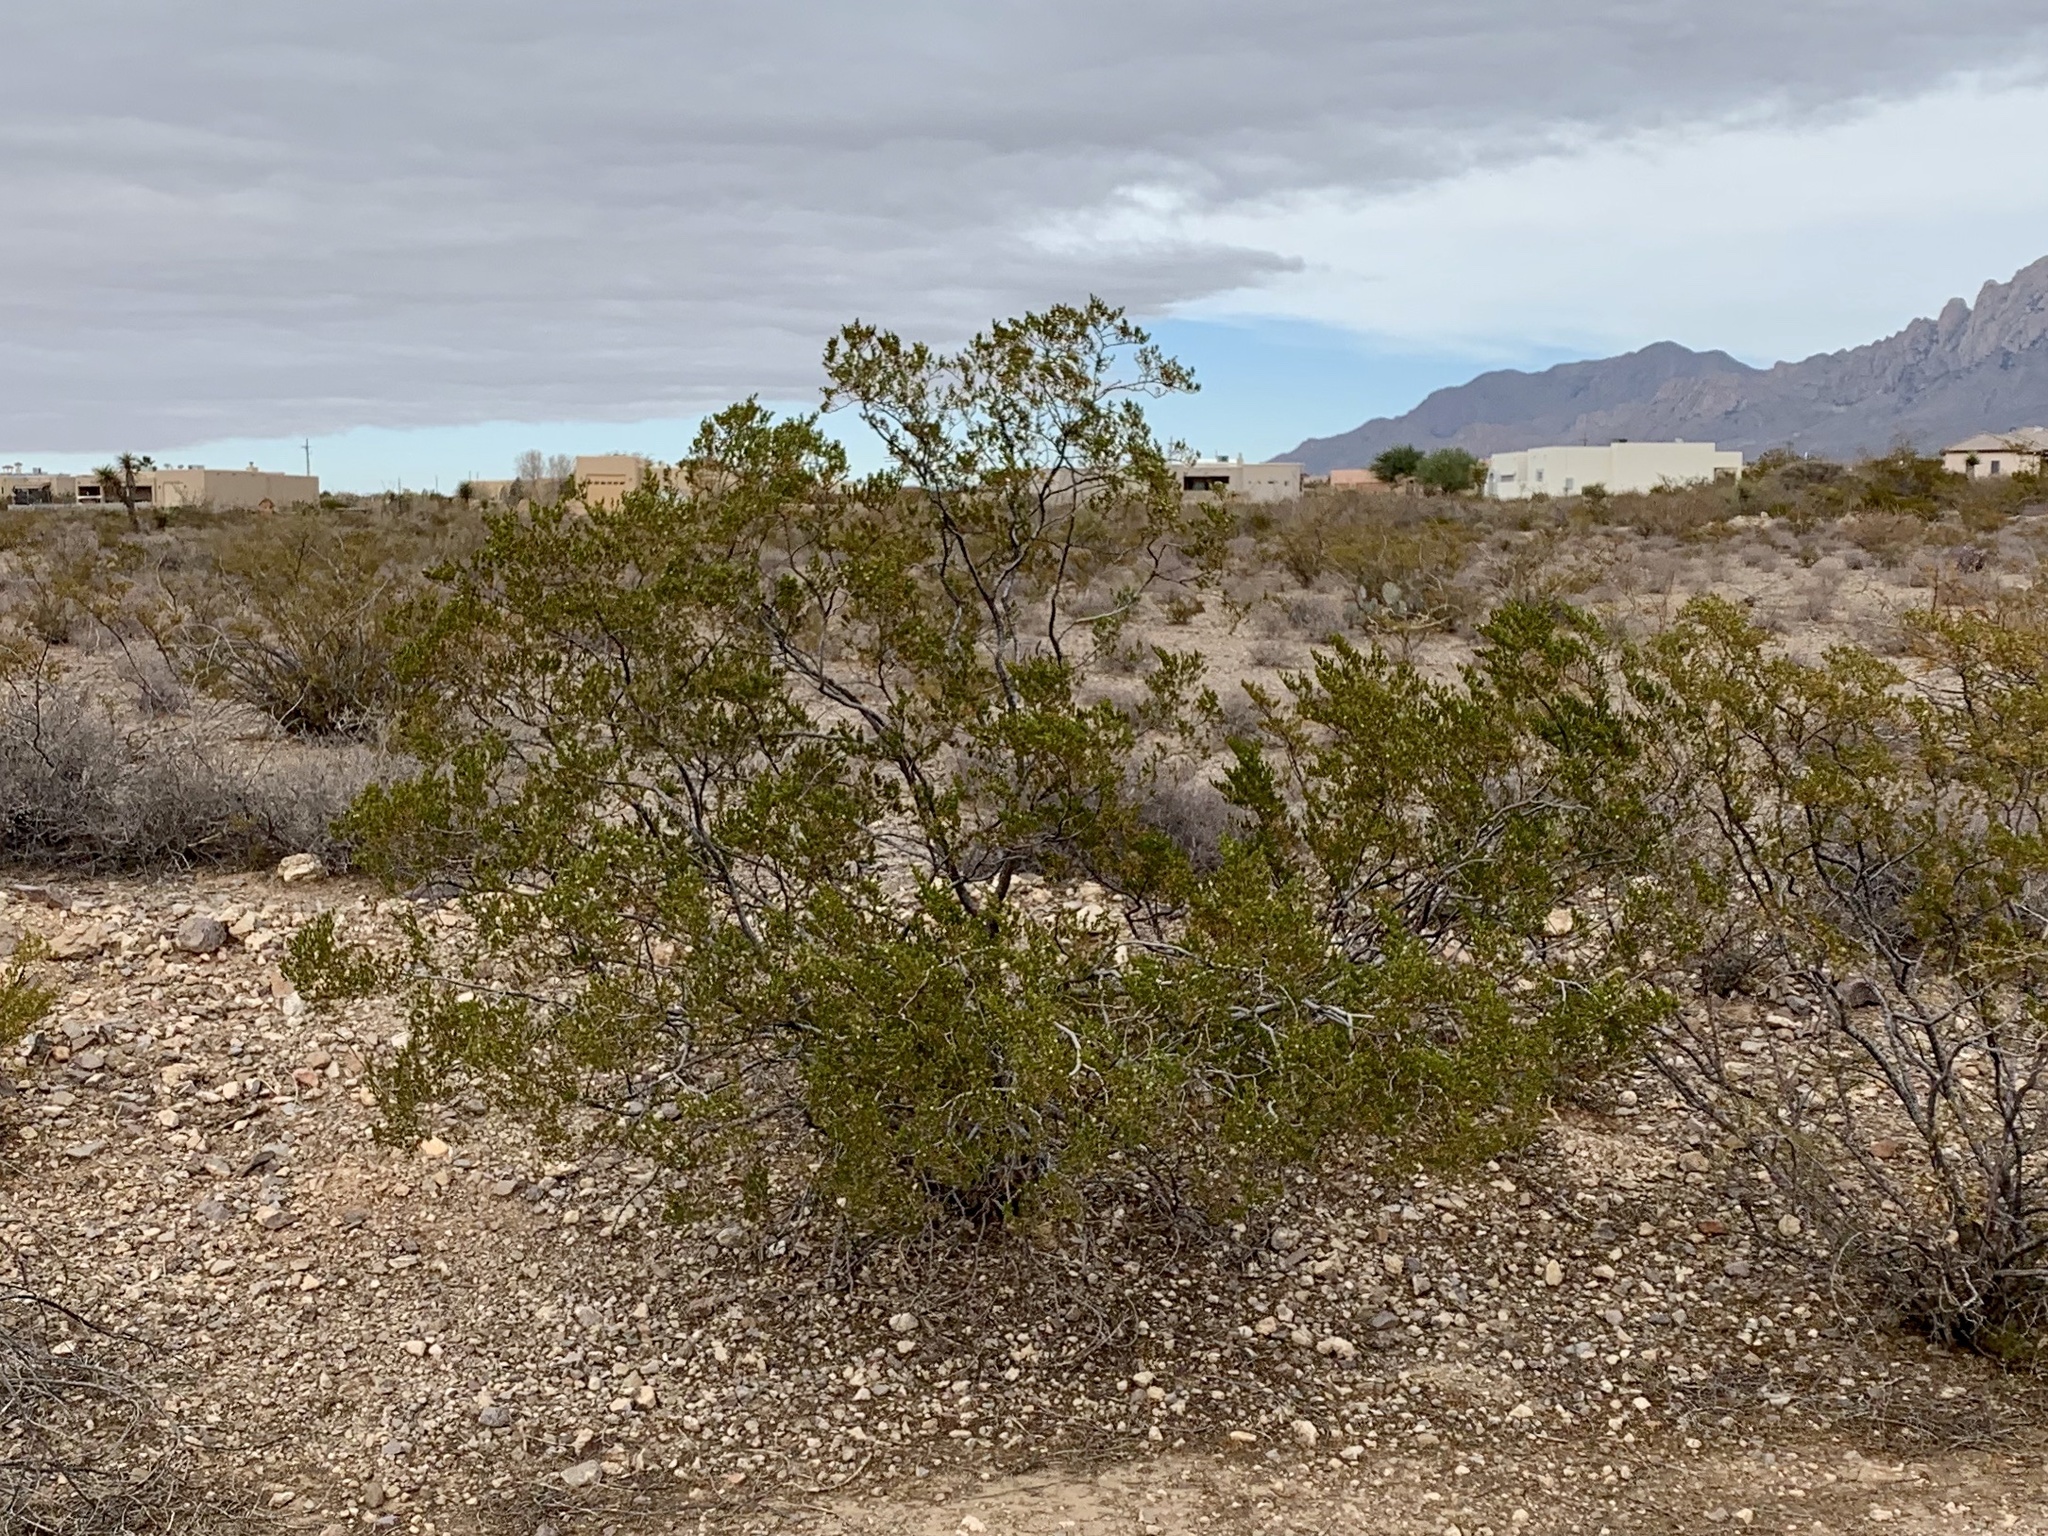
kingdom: Plantae
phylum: Tracheophyta
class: Magnoliopsida
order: Zygophyllales
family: Zygophyllaceae
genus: Larrea
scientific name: Larrea tridentata
